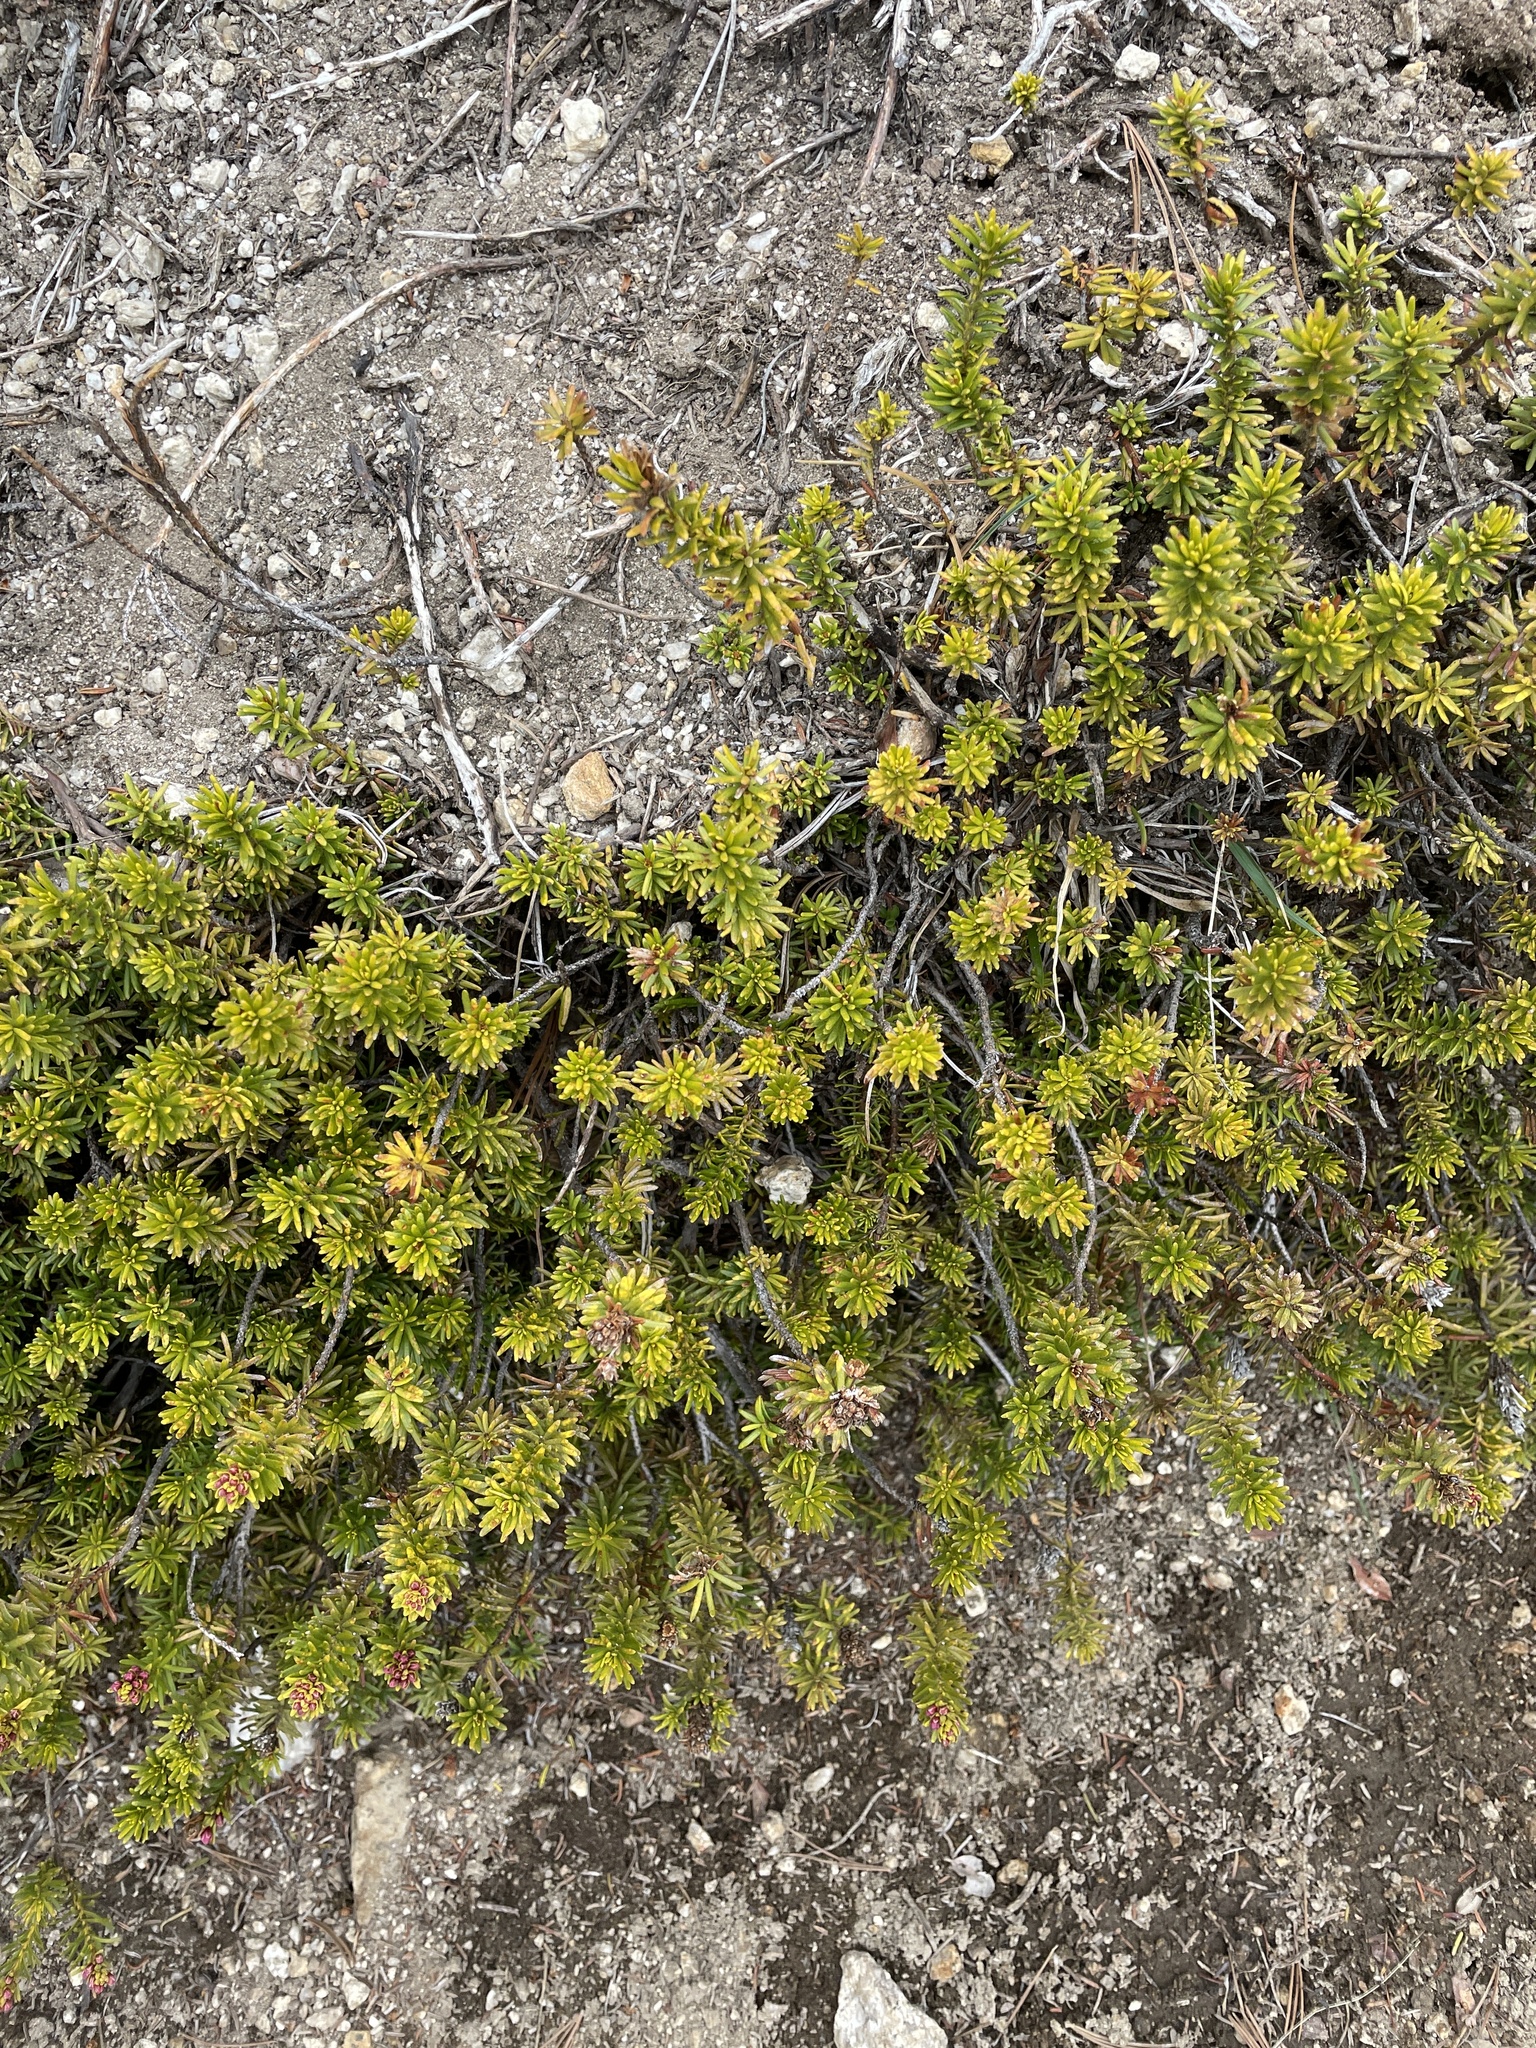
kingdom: Plantae
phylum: Tracheophyta
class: Magnoliopsida
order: Ericales
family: Ericaceae
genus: Phyllodoce
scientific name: Phyllodoce breweri
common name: Brewer's mountain-heather
